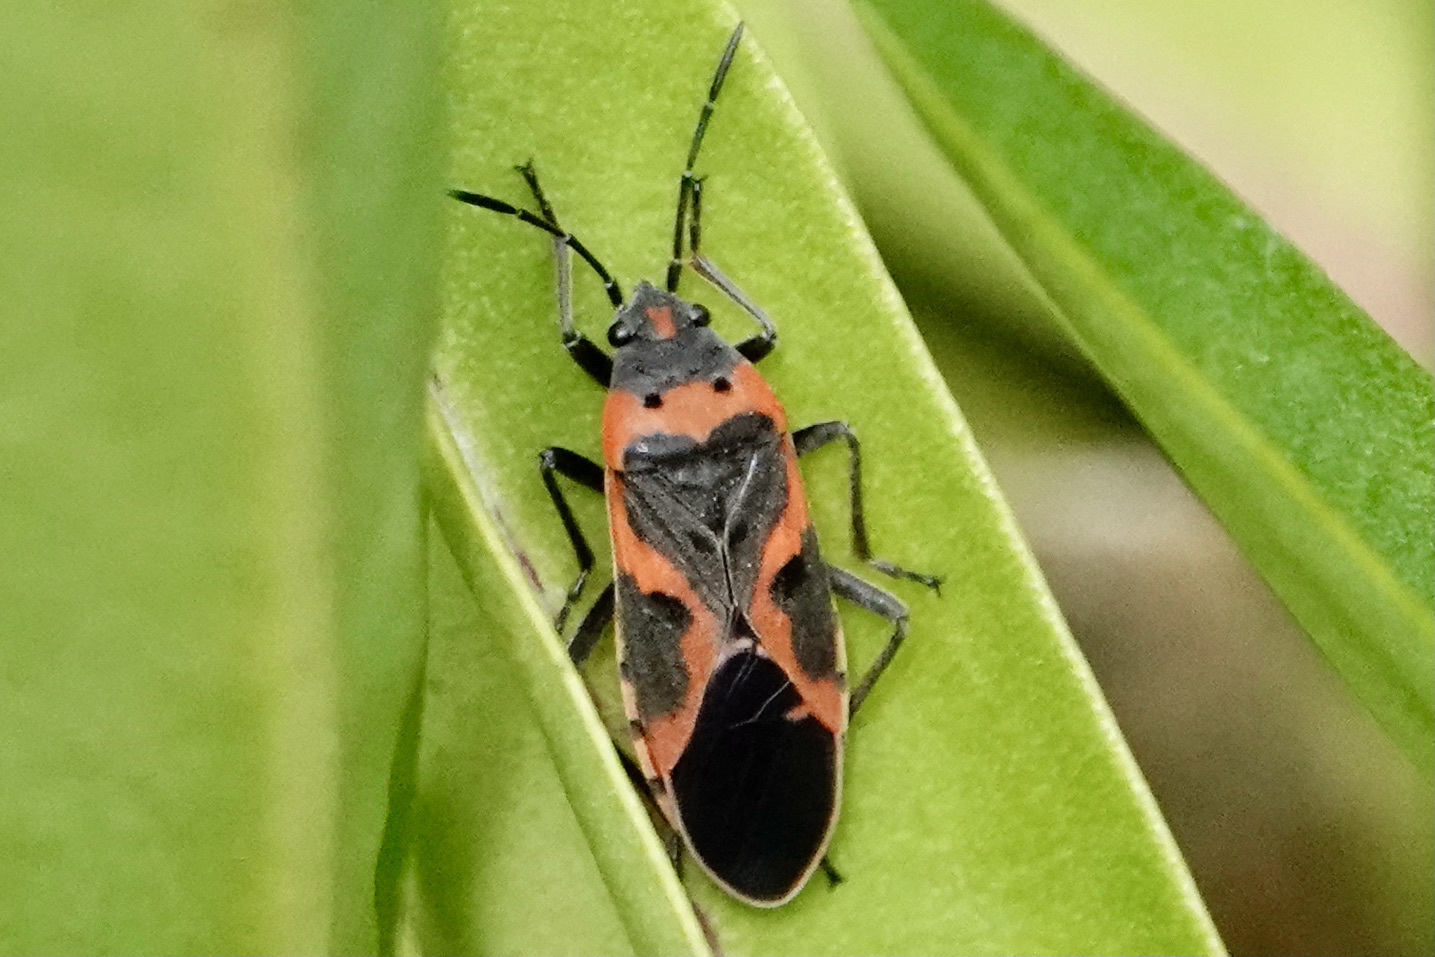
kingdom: Animalia
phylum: Arthropoda
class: Insecta
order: Hemiptera
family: Lygaeidae
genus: Lygaeus
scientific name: Lygaeus kalmii
